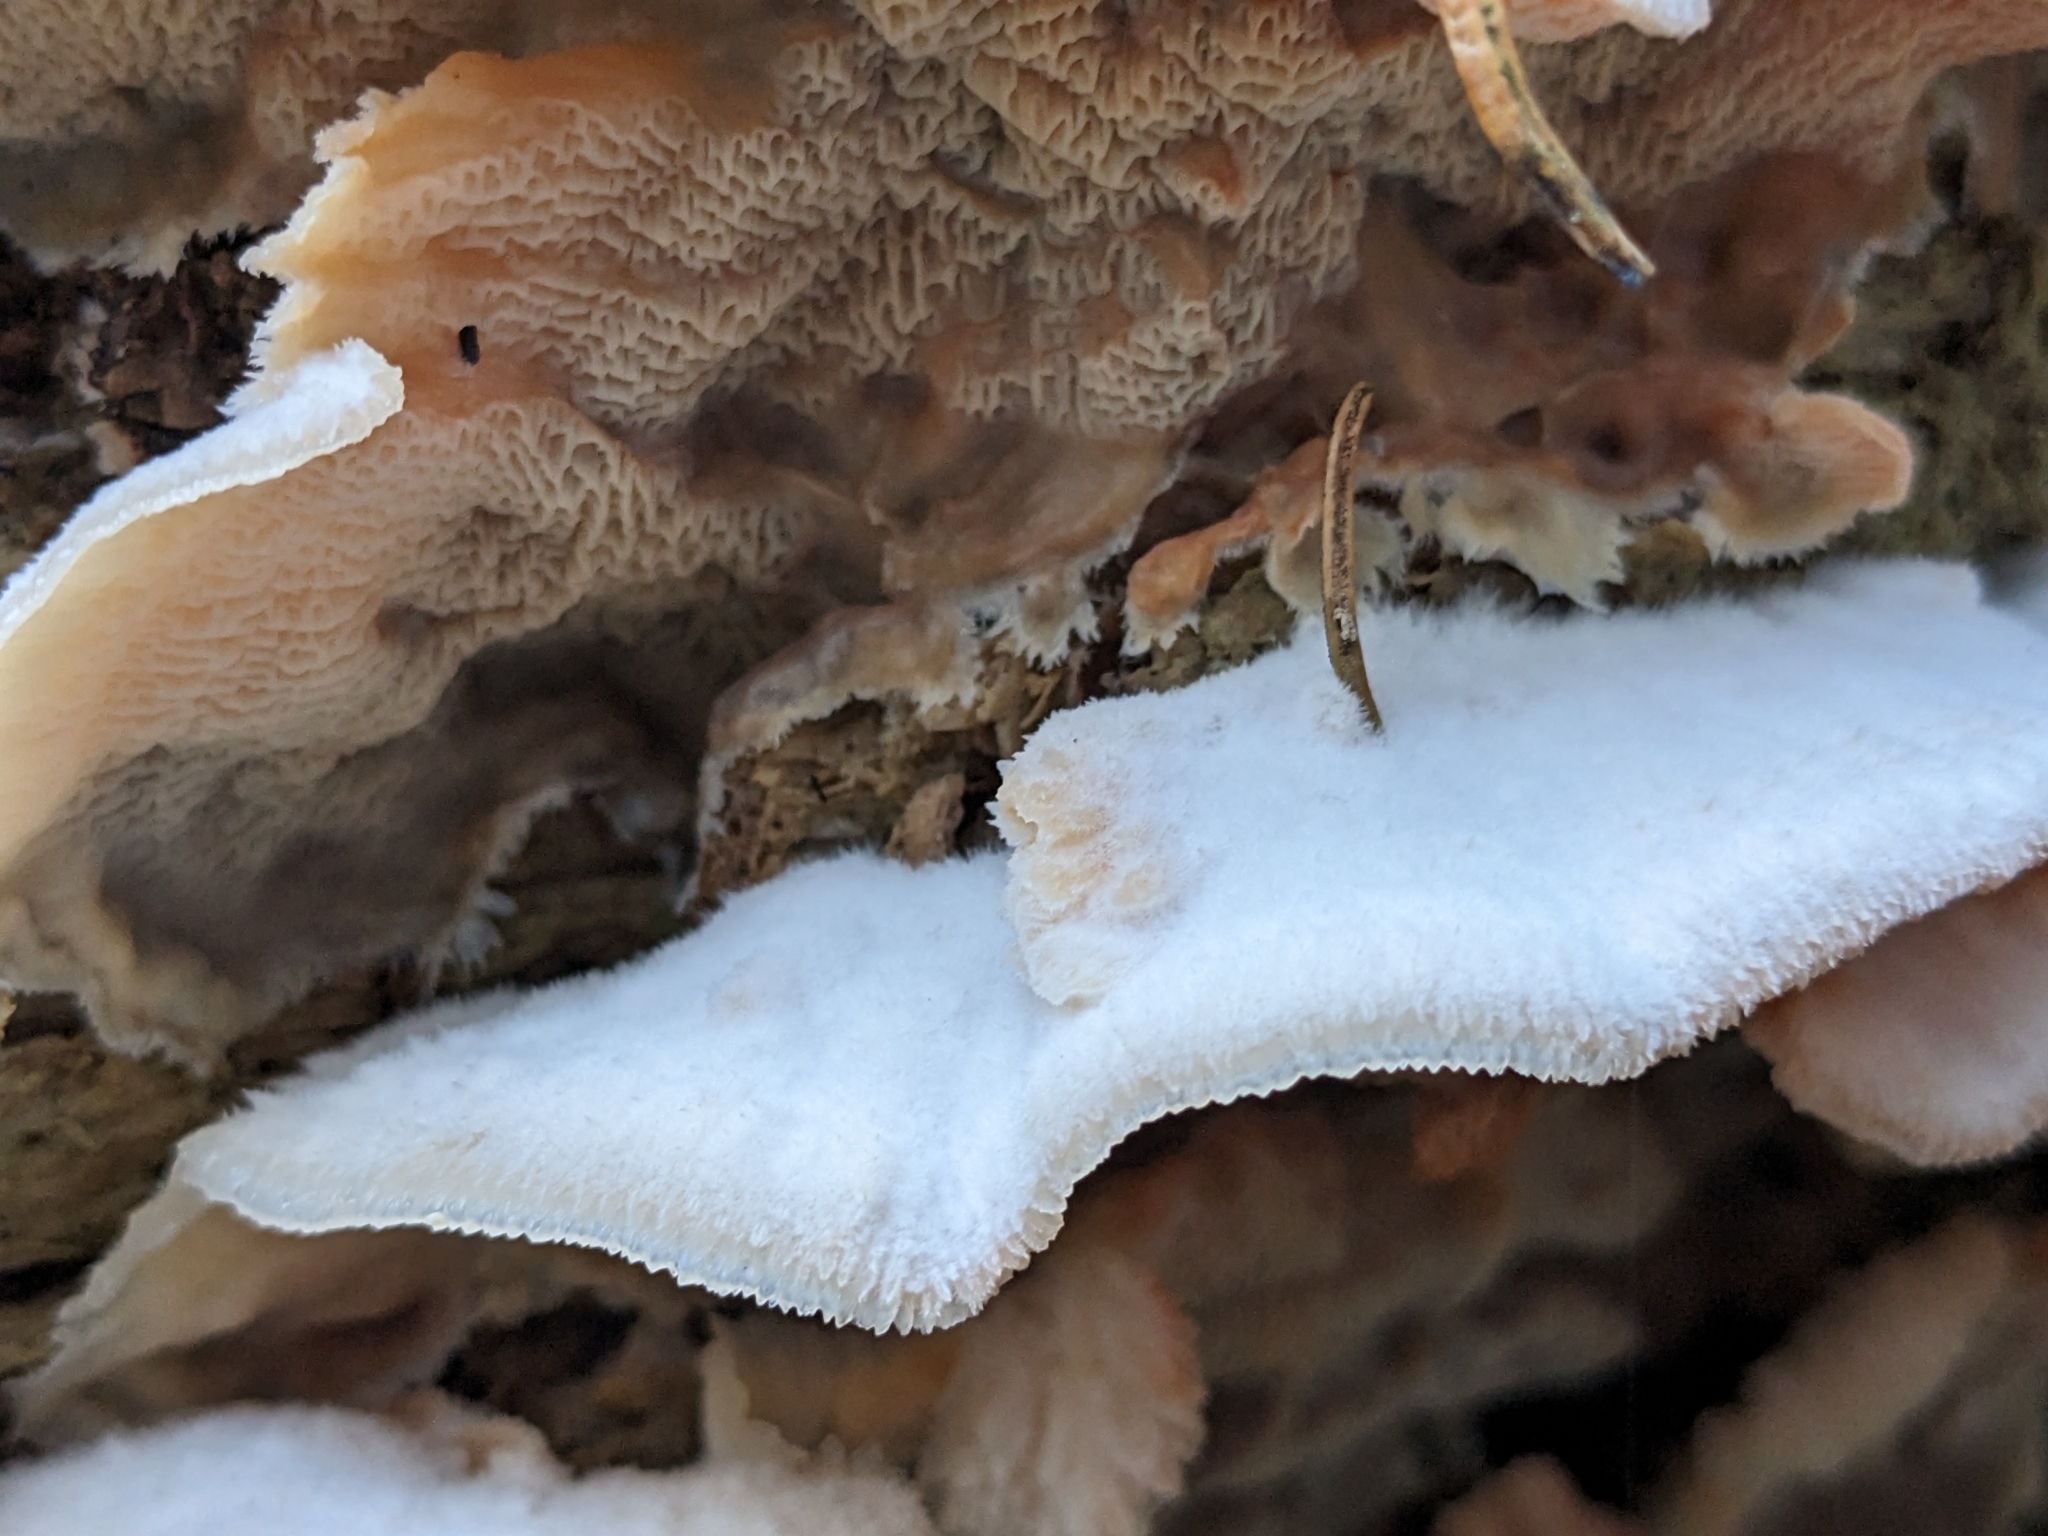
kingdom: Fungi
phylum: Basidiomycota
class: Agaricomycetes
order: Polyporales
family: Meruliaceae
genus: Phlebia
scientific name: Phlebia tremellosa
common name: Jelly rot
